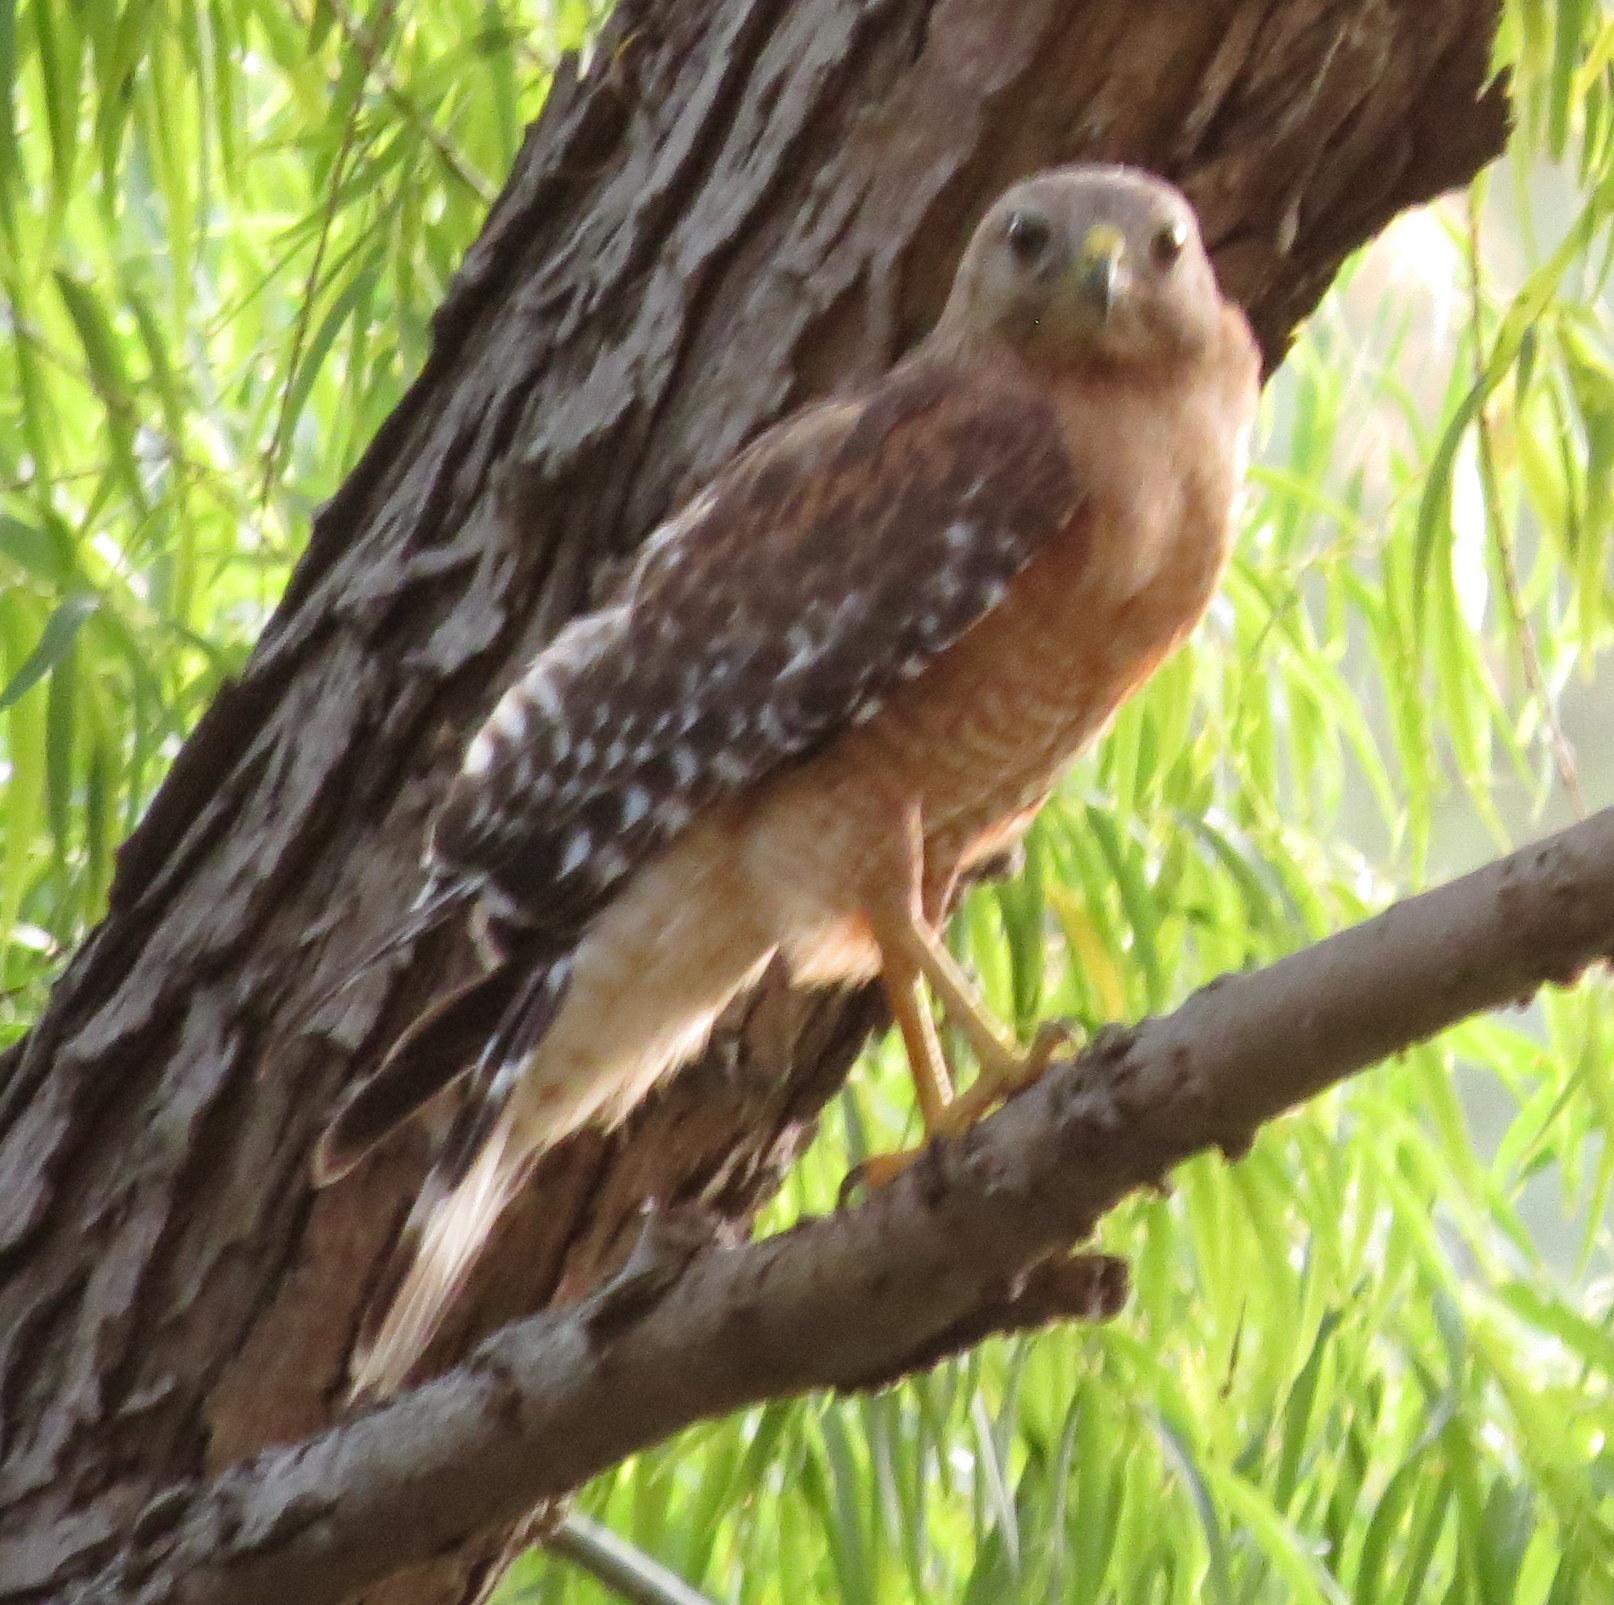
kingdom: Animalia
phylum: Chordata
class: Aves
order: Accipitriformes
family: Accipitridae
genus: Buteo
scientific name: Buteo lineatus
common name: Red-shouldered hawk
